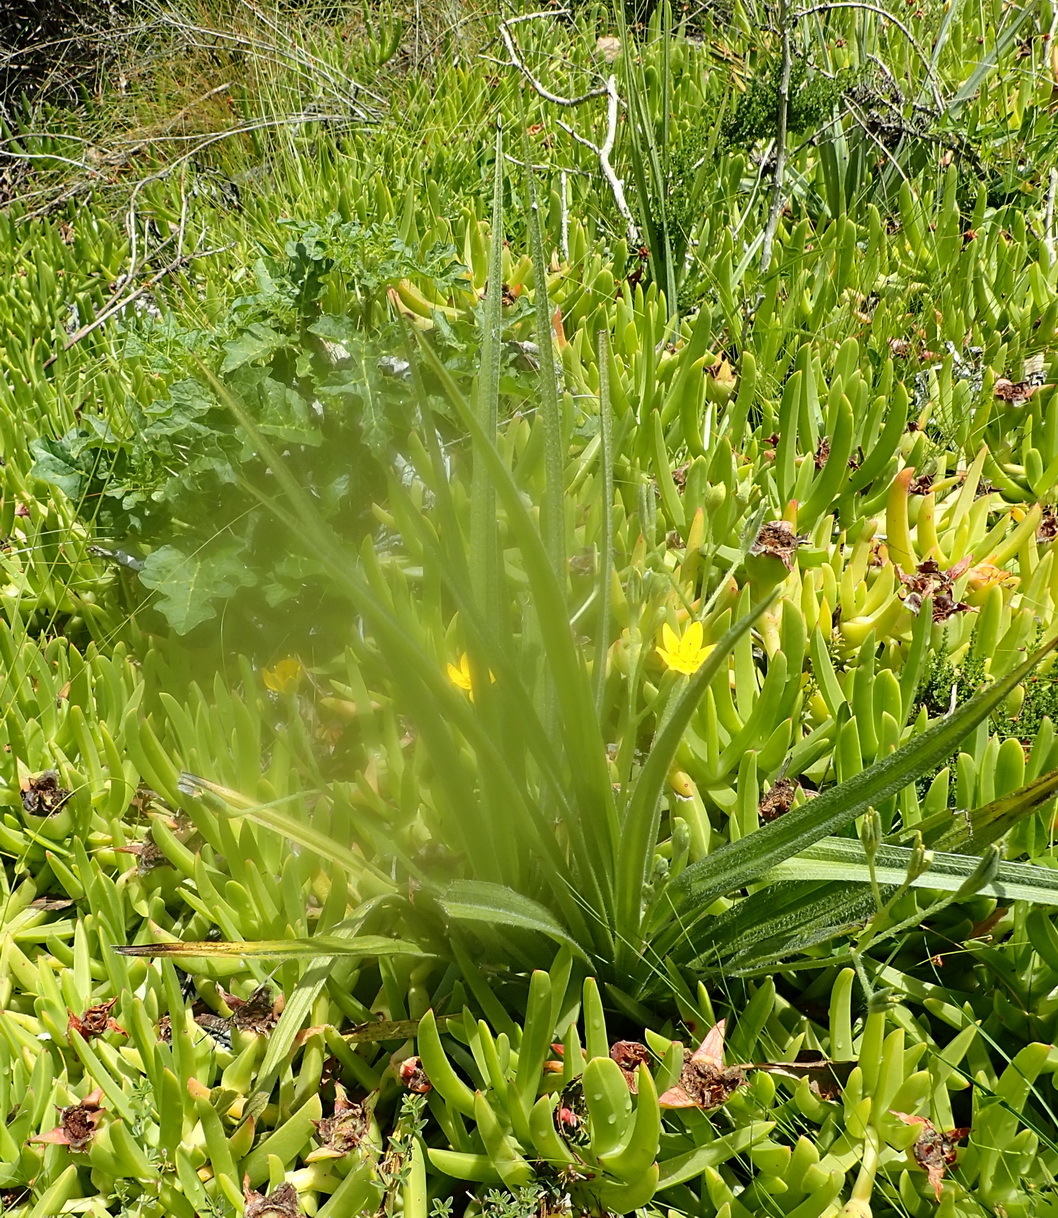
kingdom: Plantae
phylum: Tracheophyta
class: Liliopsida
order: Asparagales
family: Hypoxidaceae
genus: Hypoxis
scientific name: Hypoxis villosa
